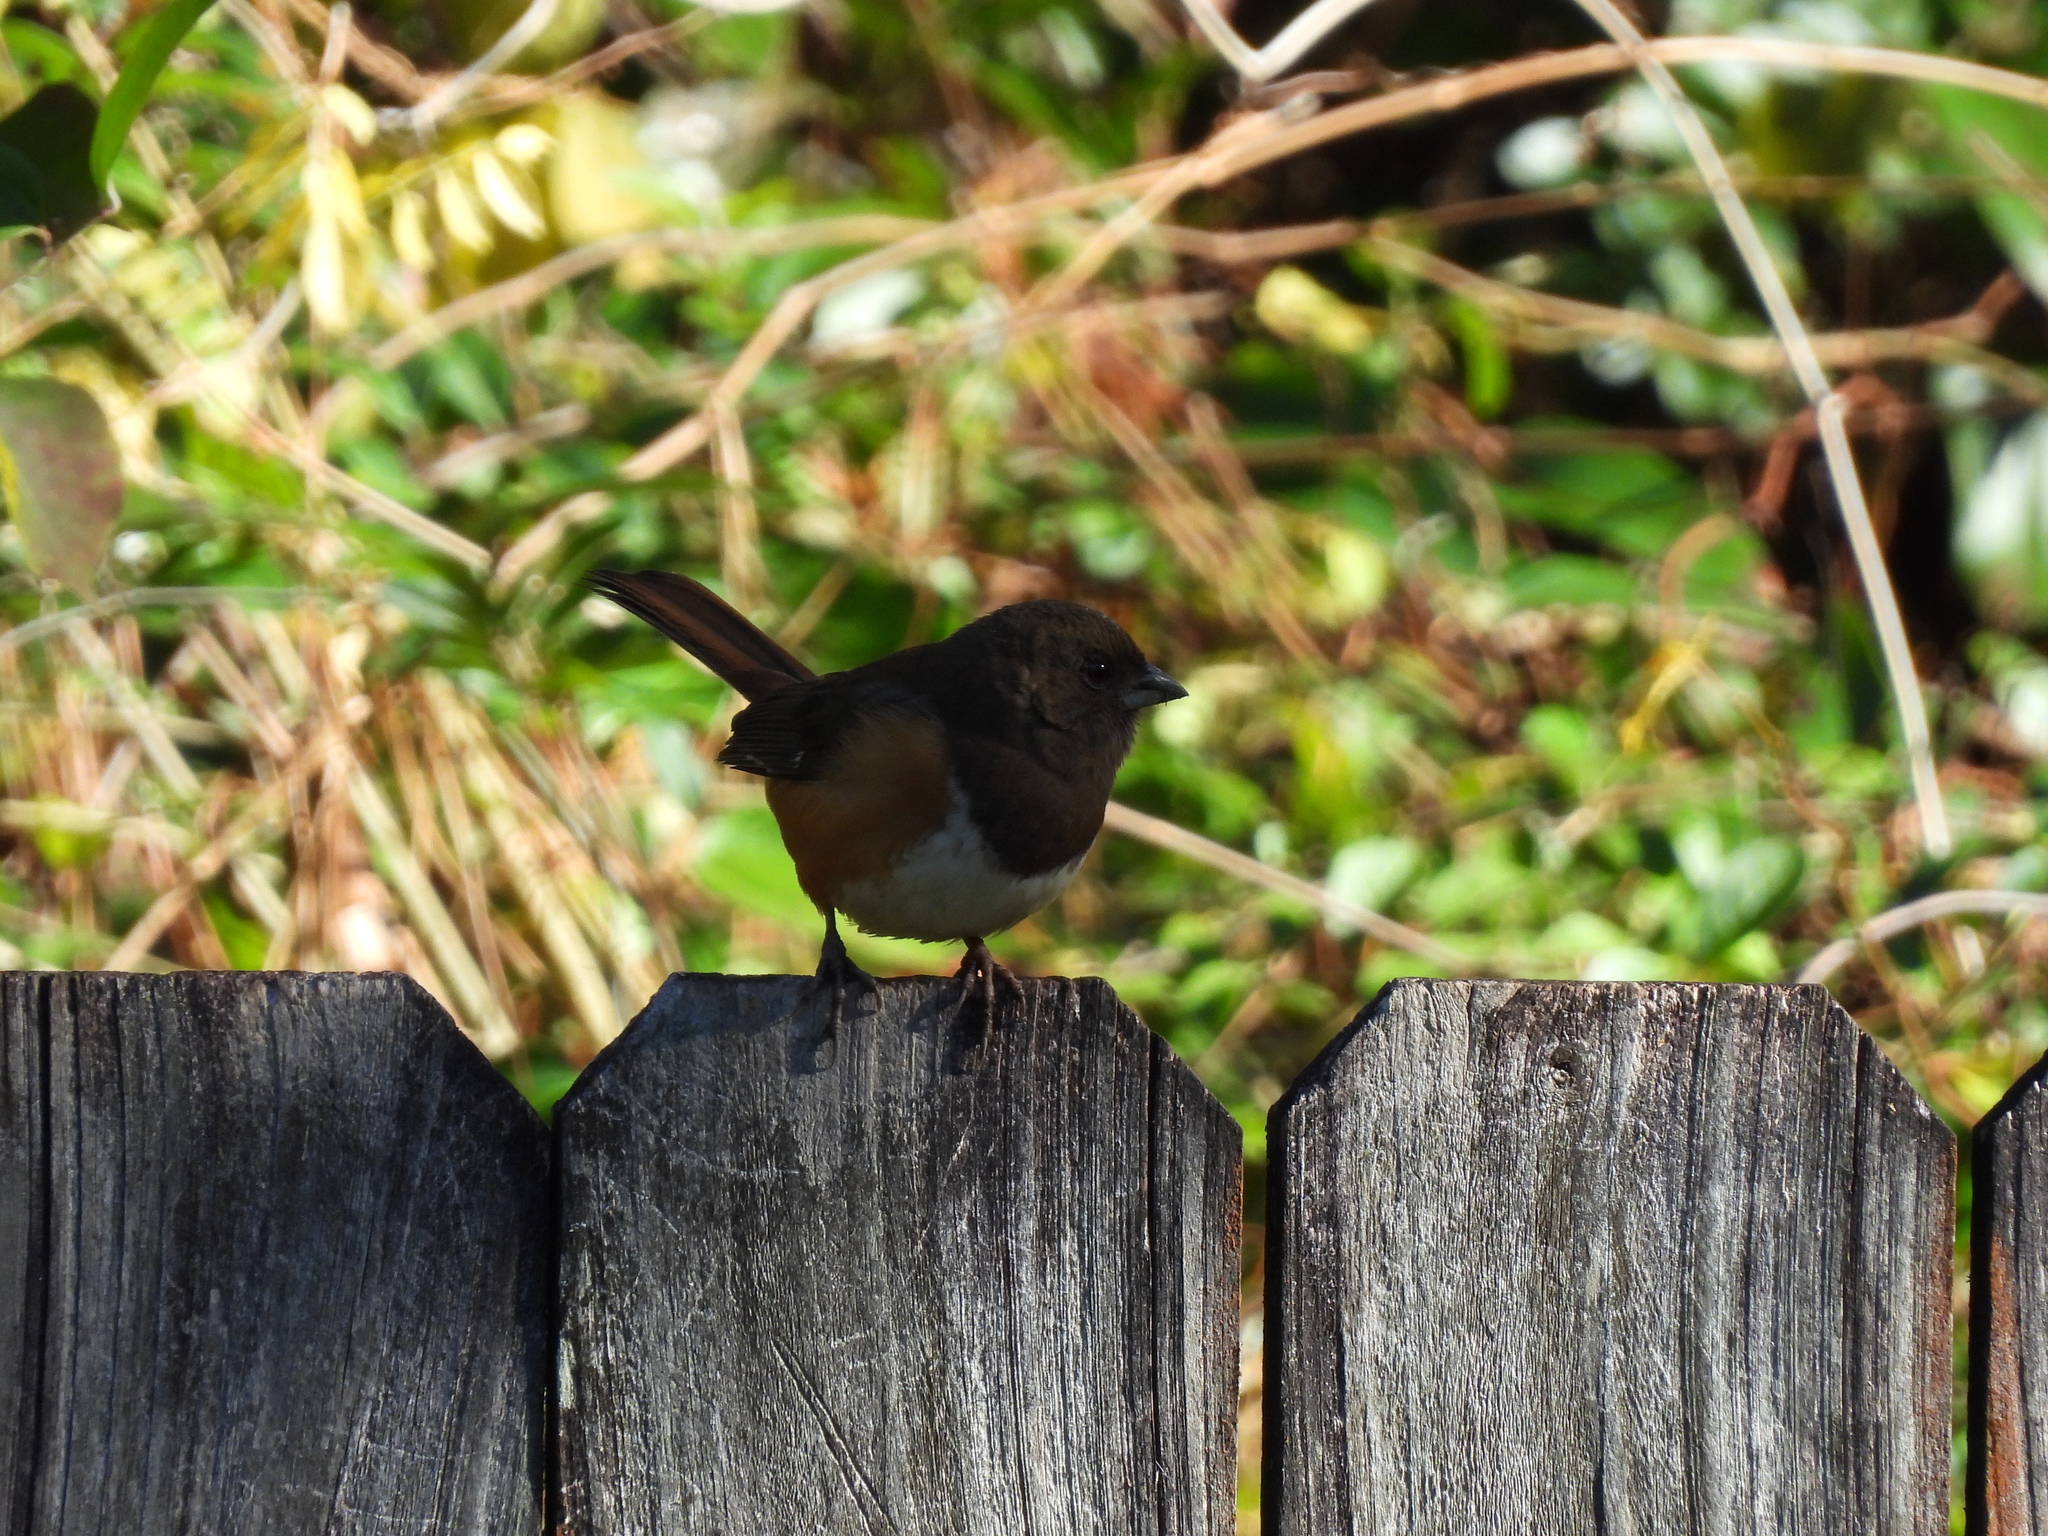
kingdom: Animalia
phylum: Chordata
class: Aves
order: Passeriformes
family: Passerellidae
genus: Pipilo
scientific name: Pipilo erythrophthalmus
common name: Eastern towhee
